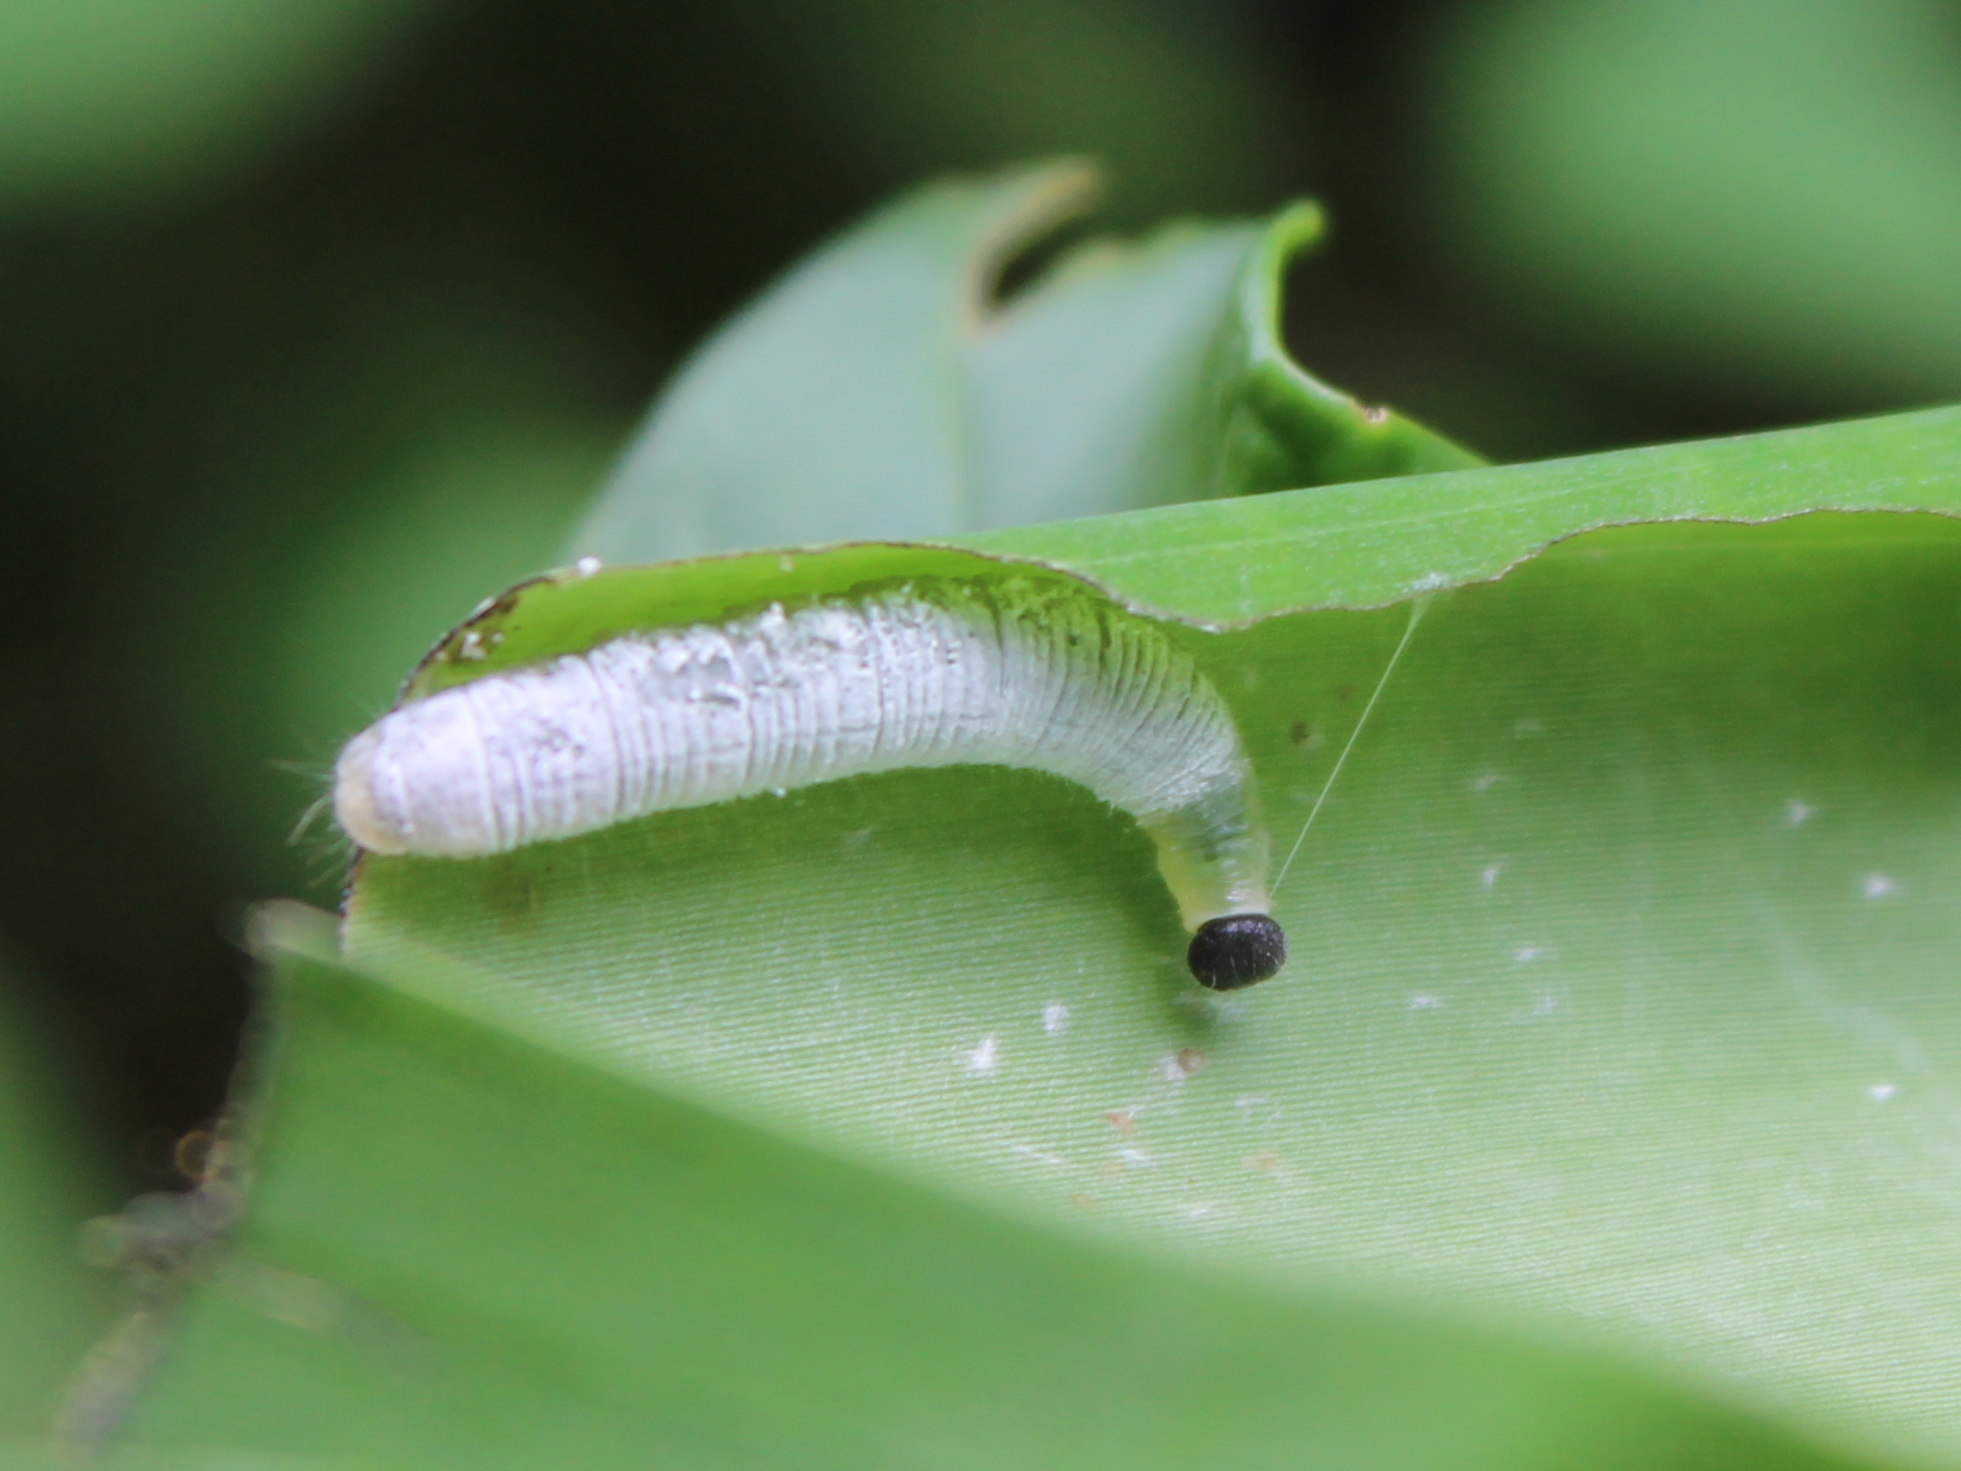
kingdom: Animalia
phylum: Arthropoda
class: Insecta
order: Lepidoptera
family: Hesperiidae
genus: Erionota
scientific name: Erionota torus
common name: Rounded palm-redeye
